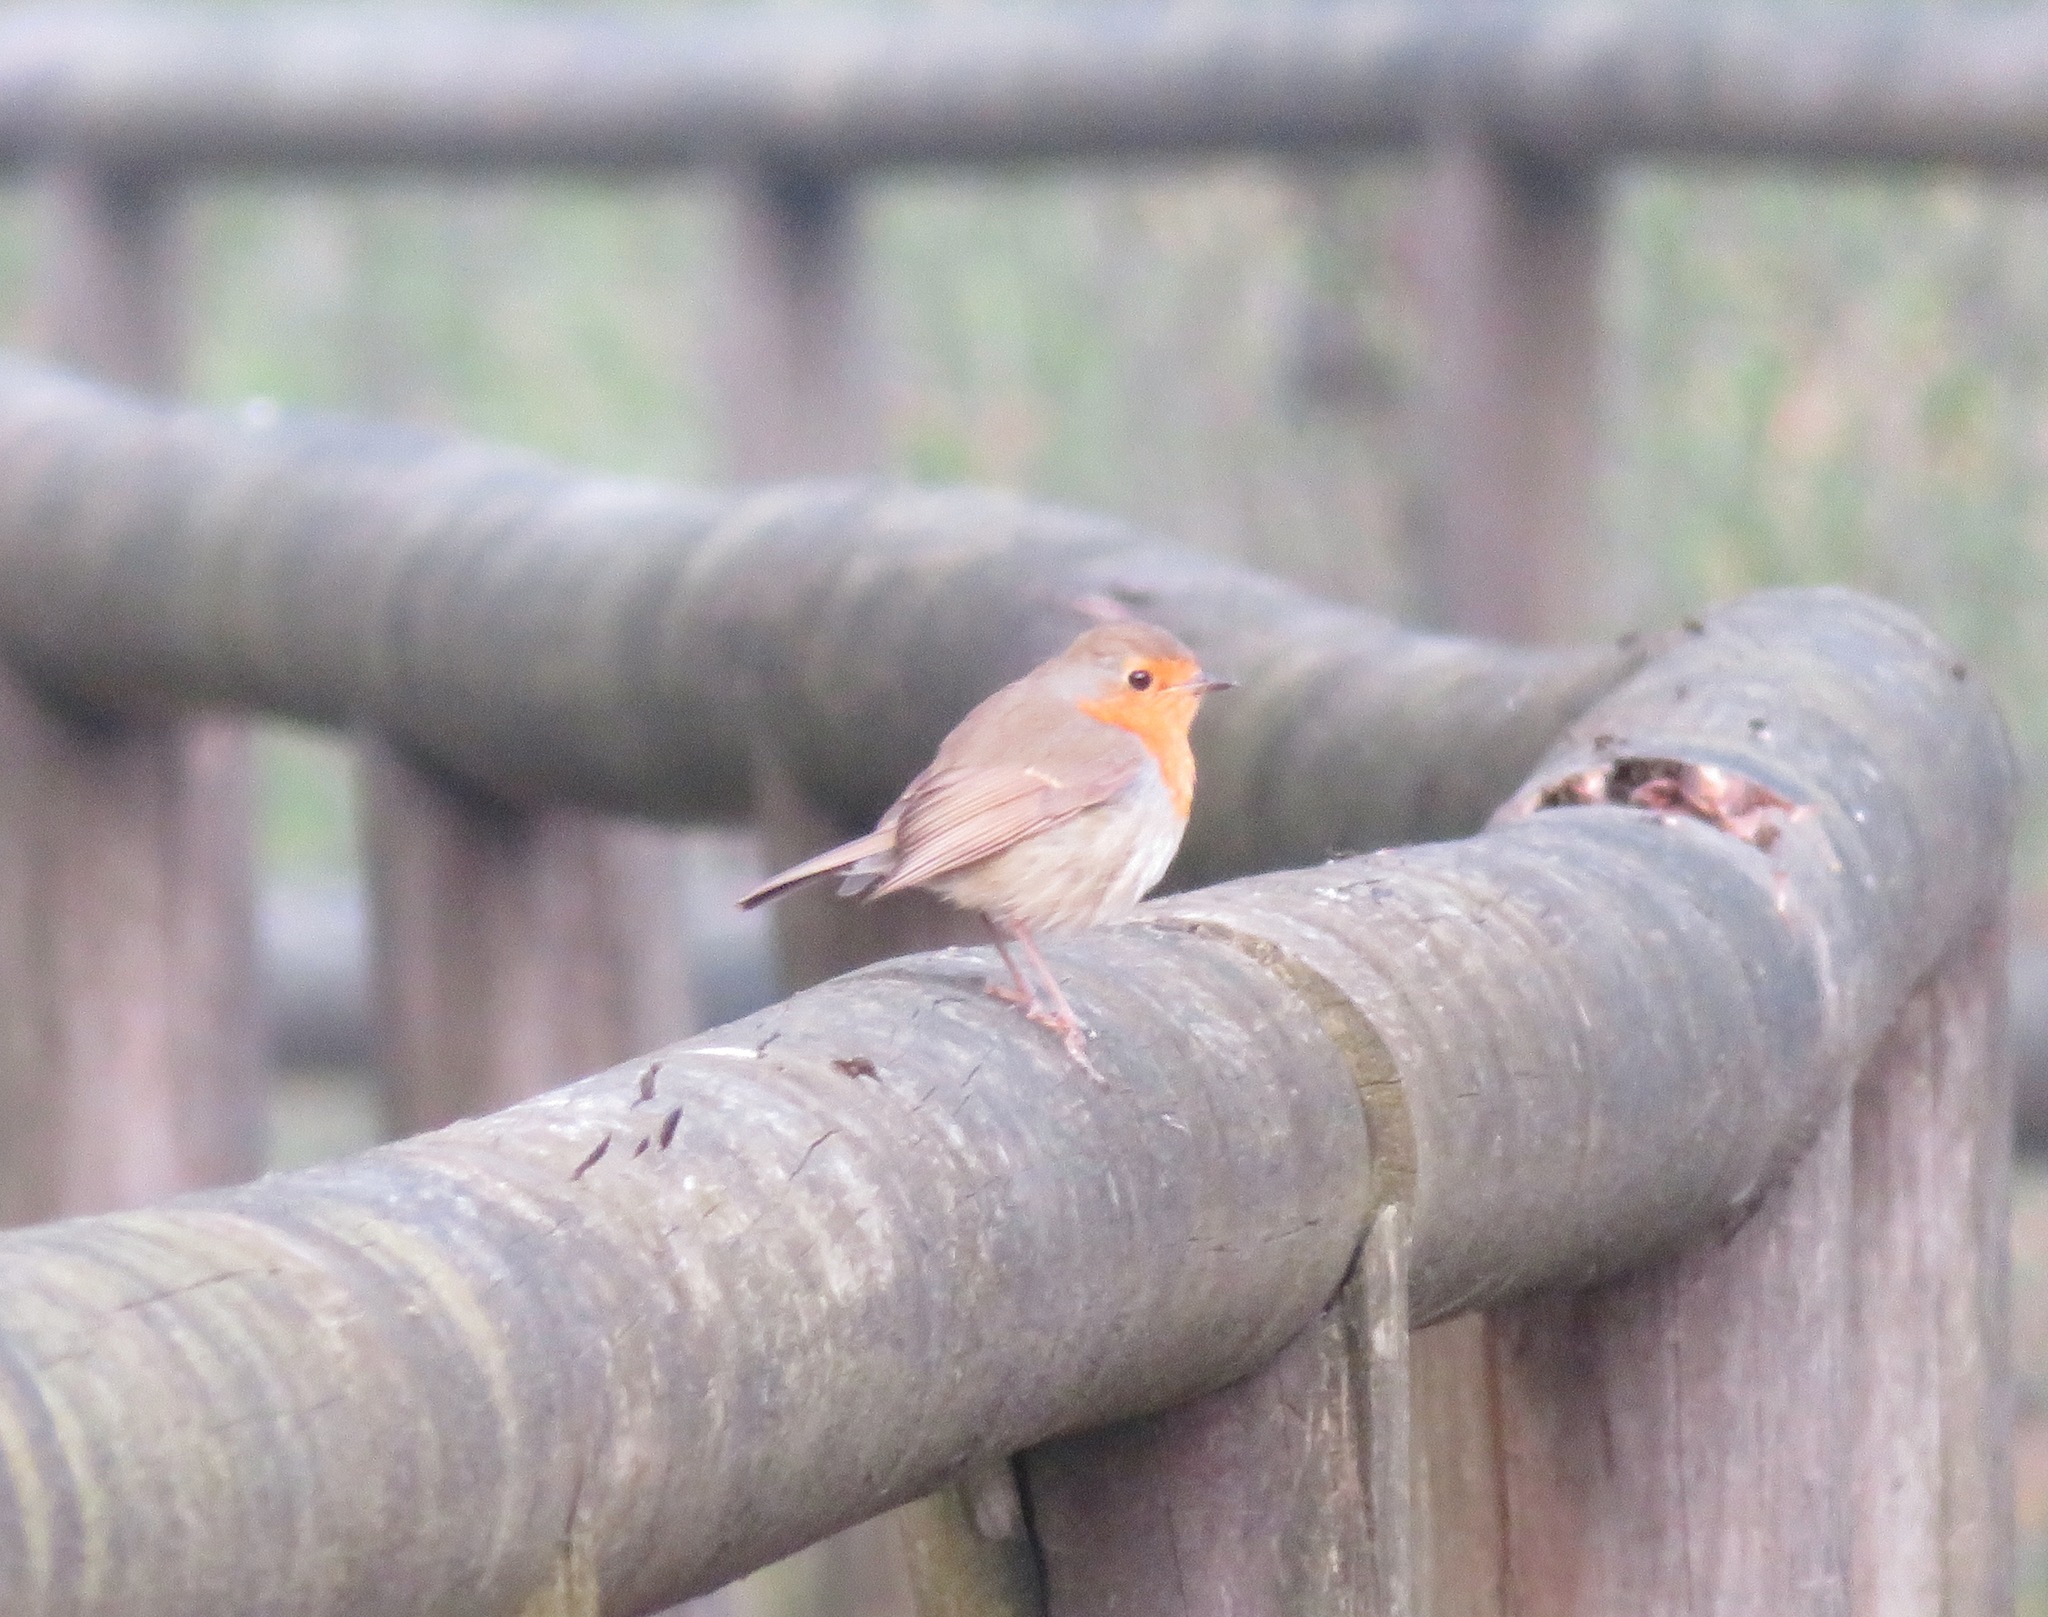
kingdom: Animalia
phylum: Chordata
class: Aves
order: Passeriformes
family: Muscicapidae
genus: Erithacus
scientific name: Erithacus rubecula
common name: European robin
